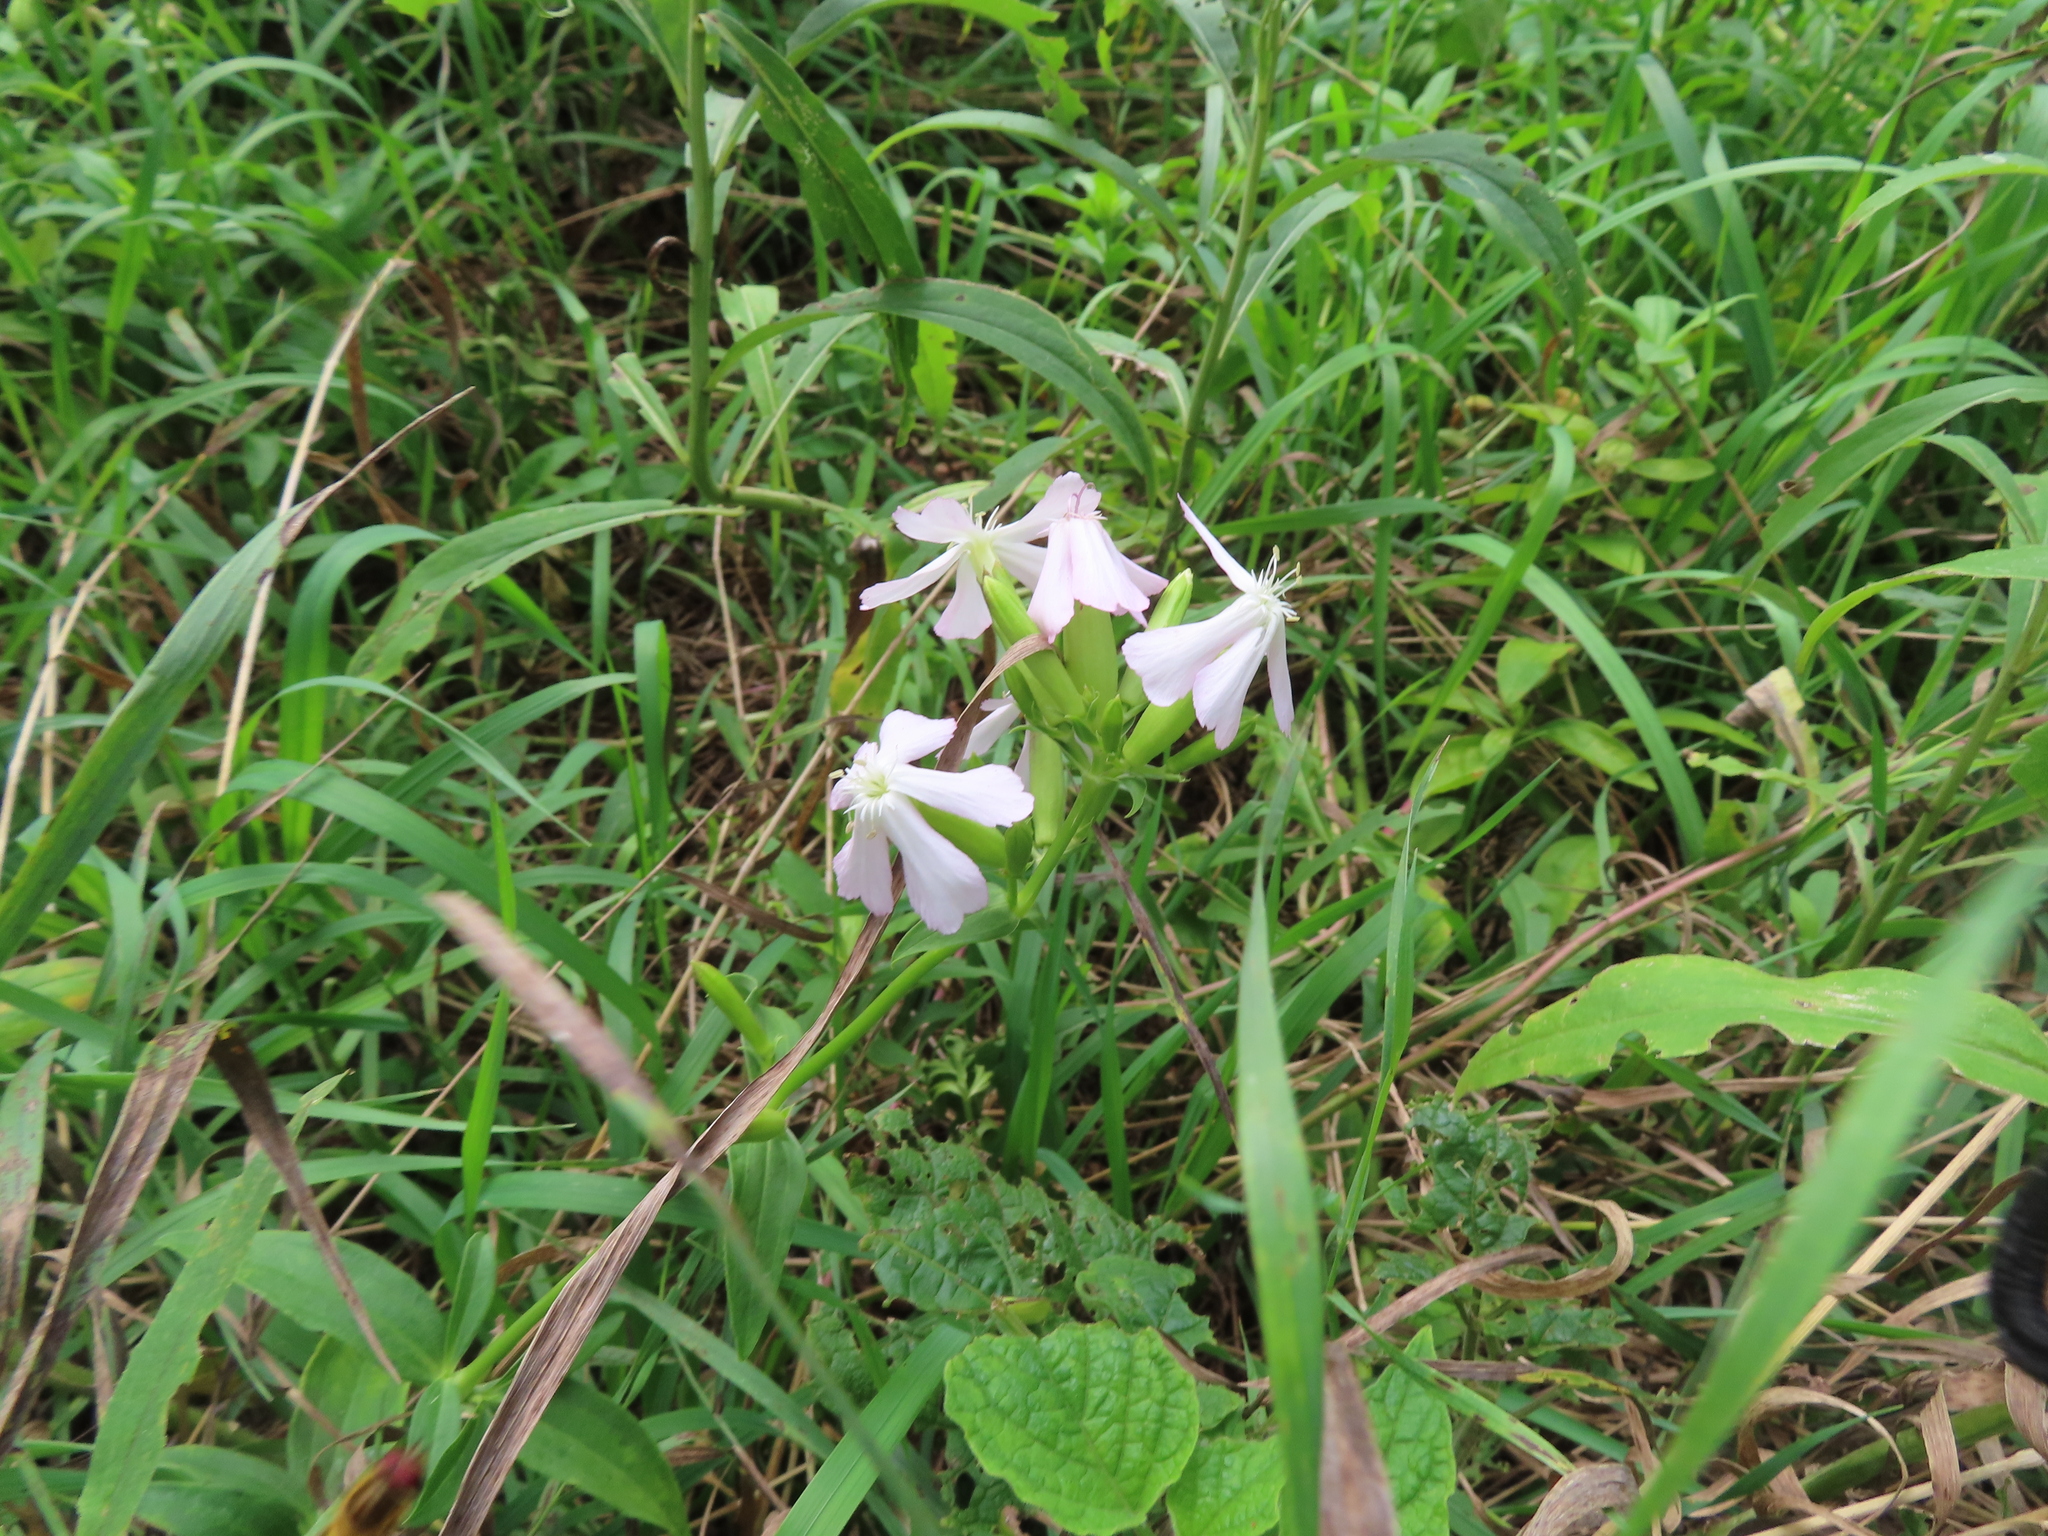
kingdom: Plantae
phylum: Tracheophyta
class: Magnoliopsida
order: Caryophyllales
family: Caryophyllaceae
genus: Saponaria
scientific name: Saponaria officinalis
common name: Soapwort
